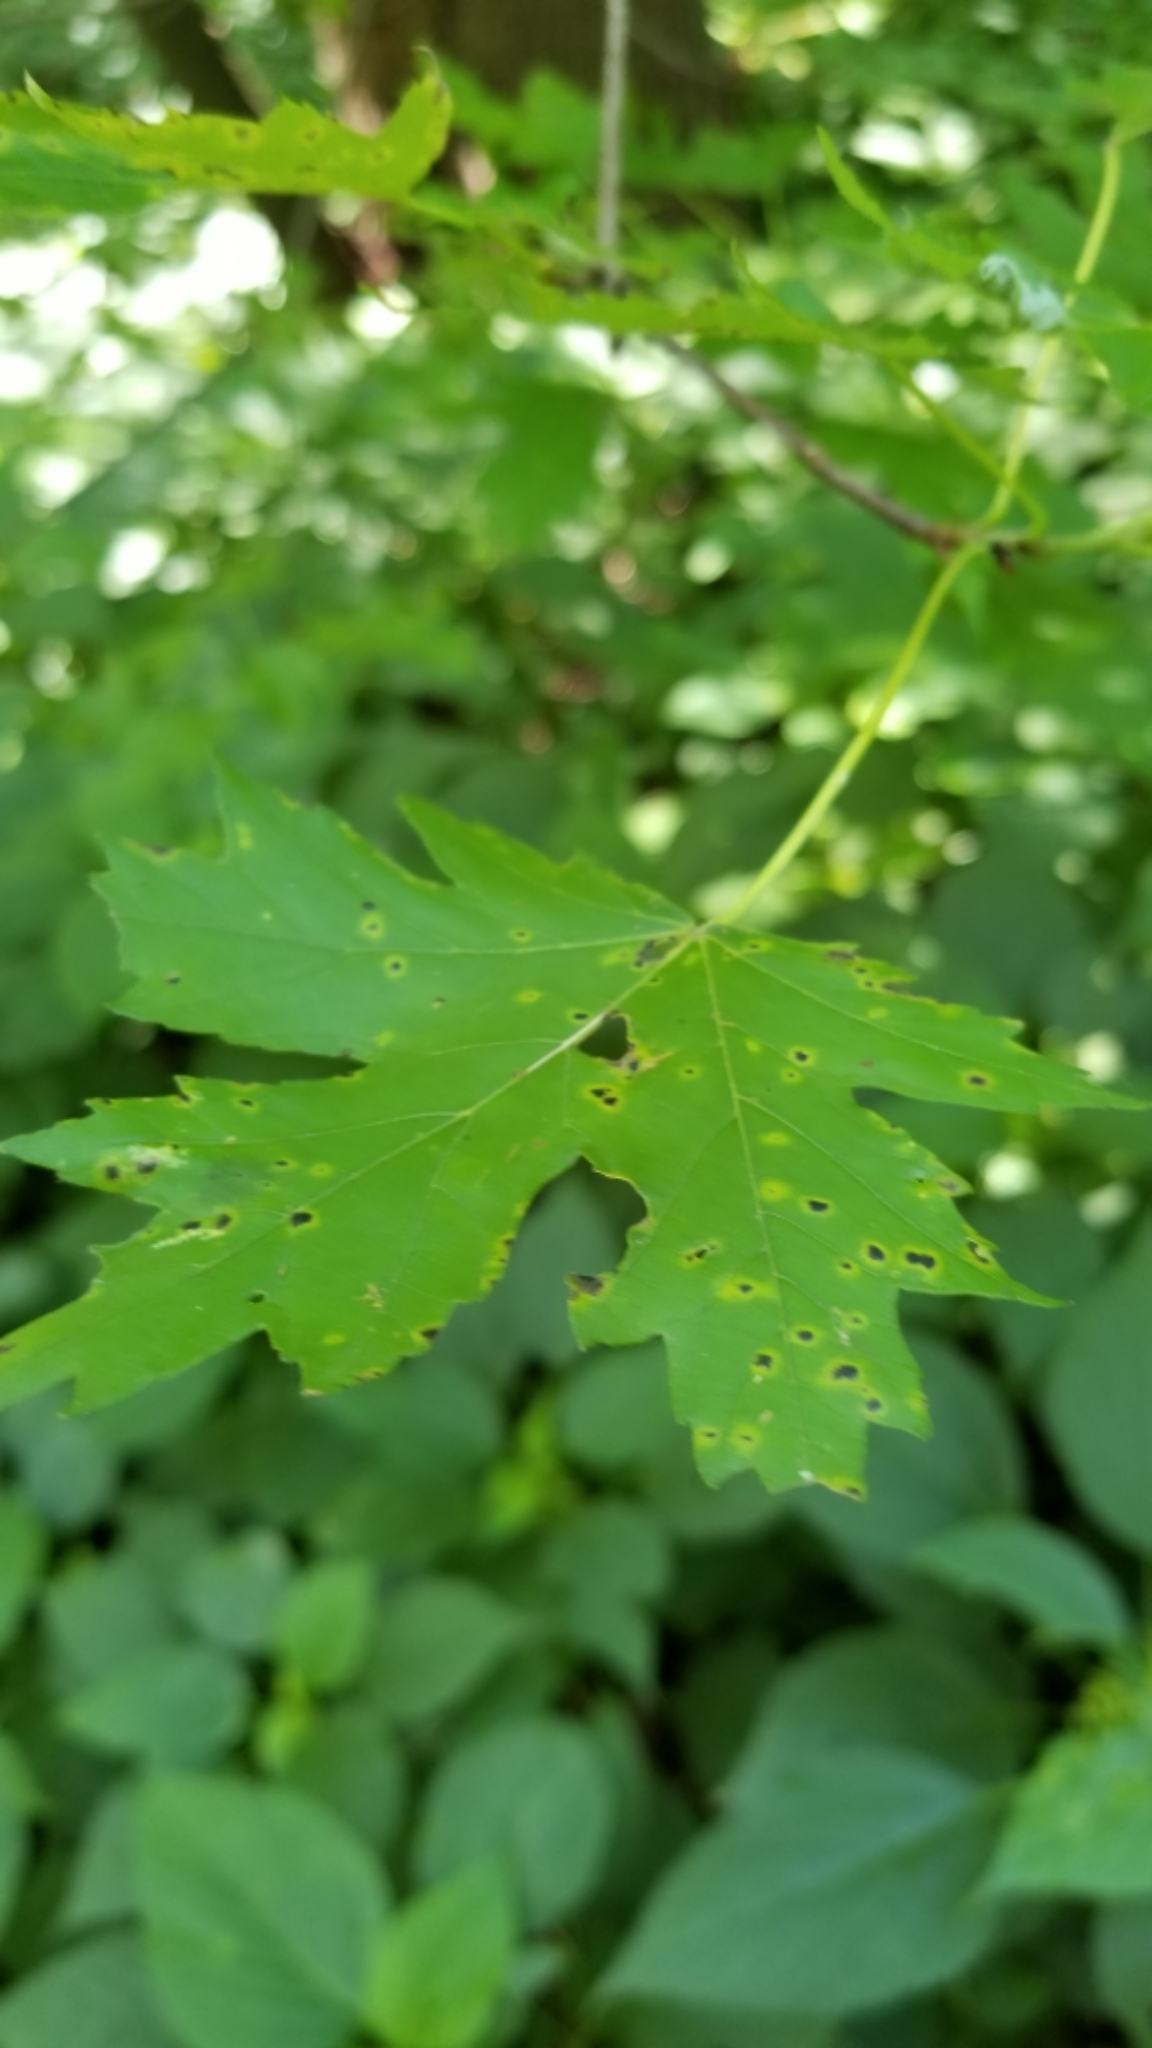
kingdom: Plantae
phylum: Tracheophyta
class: Magnoliopsida
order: Sapindales
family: Sapindaceae
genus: Acer
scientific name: Acer saccharinum
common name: Silver maple
